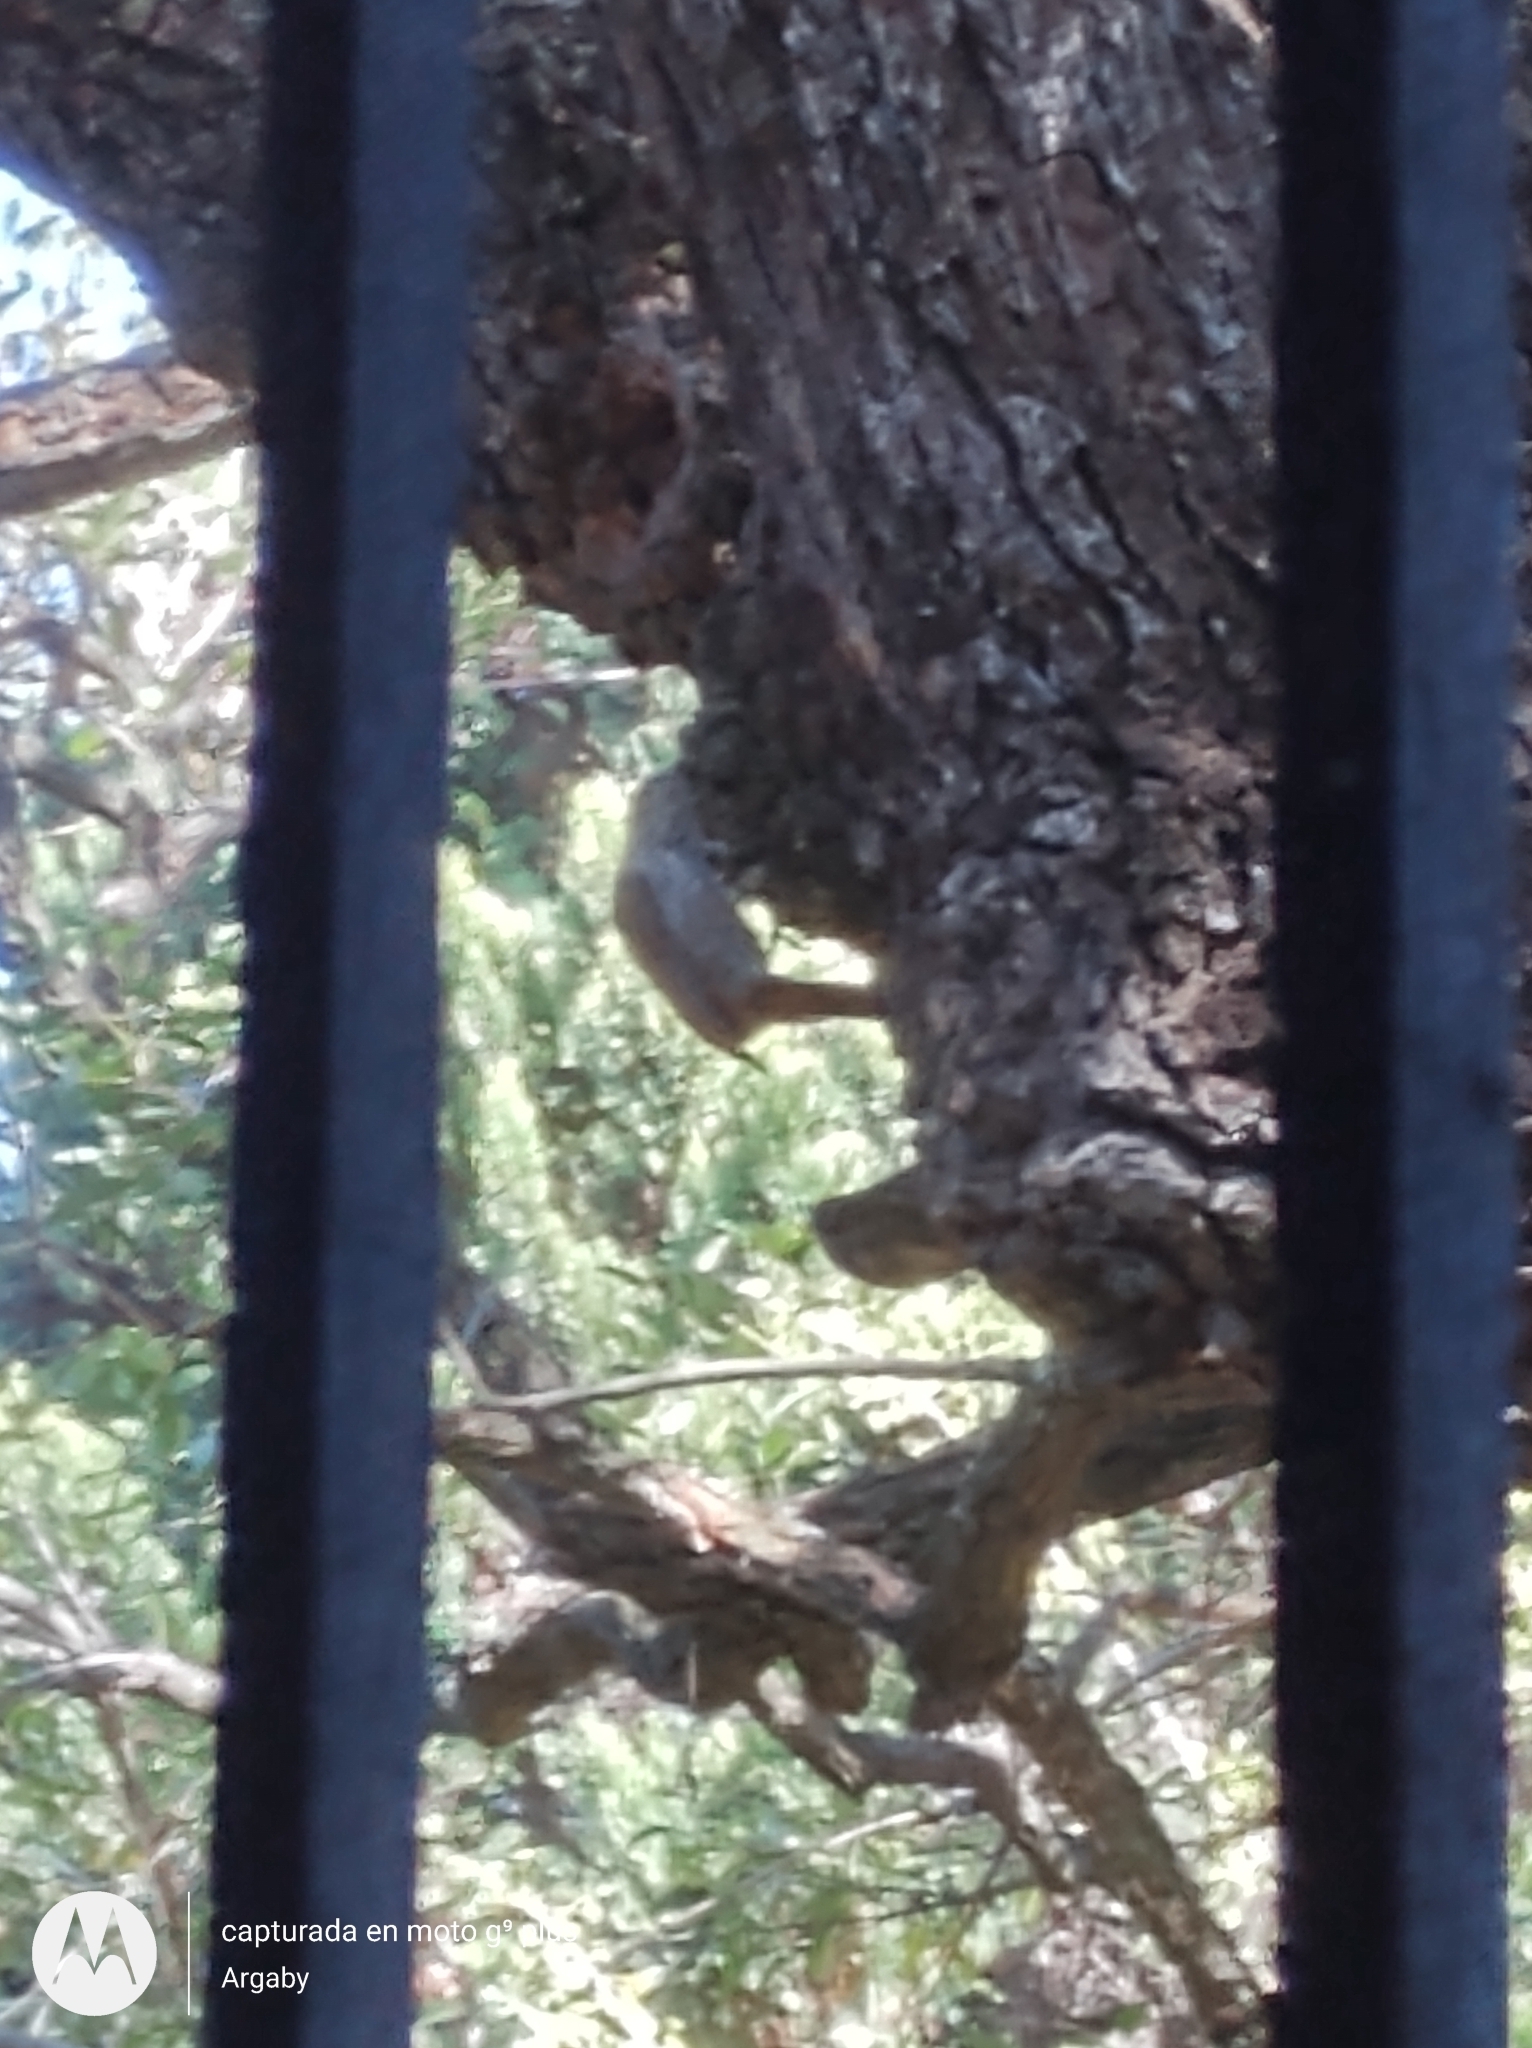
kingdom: Animalia
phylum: Chordata
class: Aves
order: Passeriformes
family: Furnariidae
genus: Lepidocolaptes
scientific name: Lepidocolaptes angustirostris
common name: Narrow-billed woodcreeper
